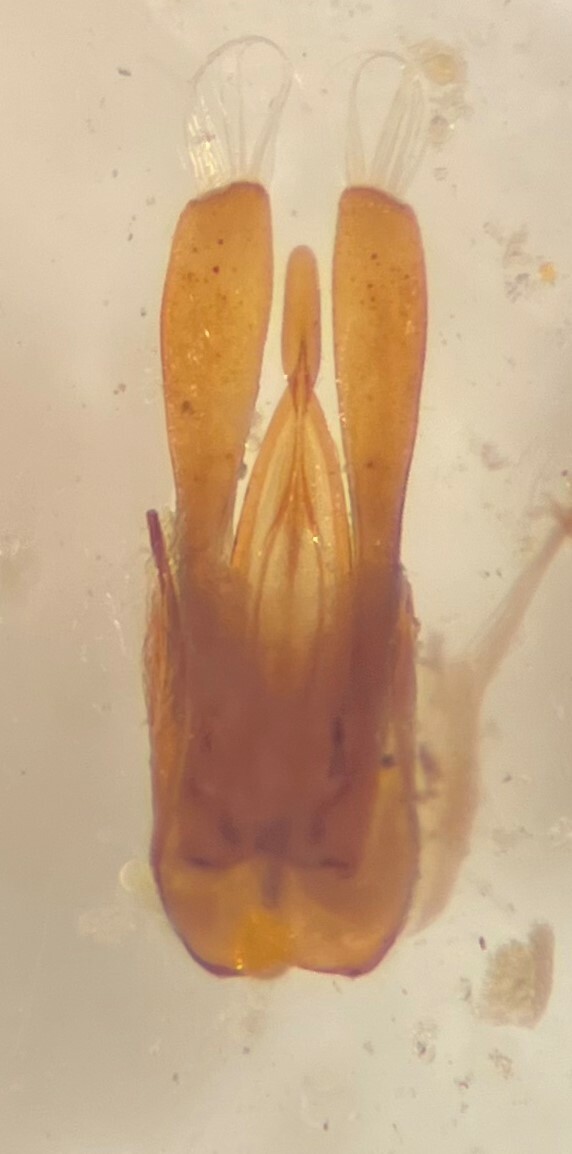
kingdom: Animalia
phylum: Arthropoda
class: Insecta
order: Coleoptera
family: Gyrinidae
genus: Gyrinus
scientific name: Gyrinus bifarius
